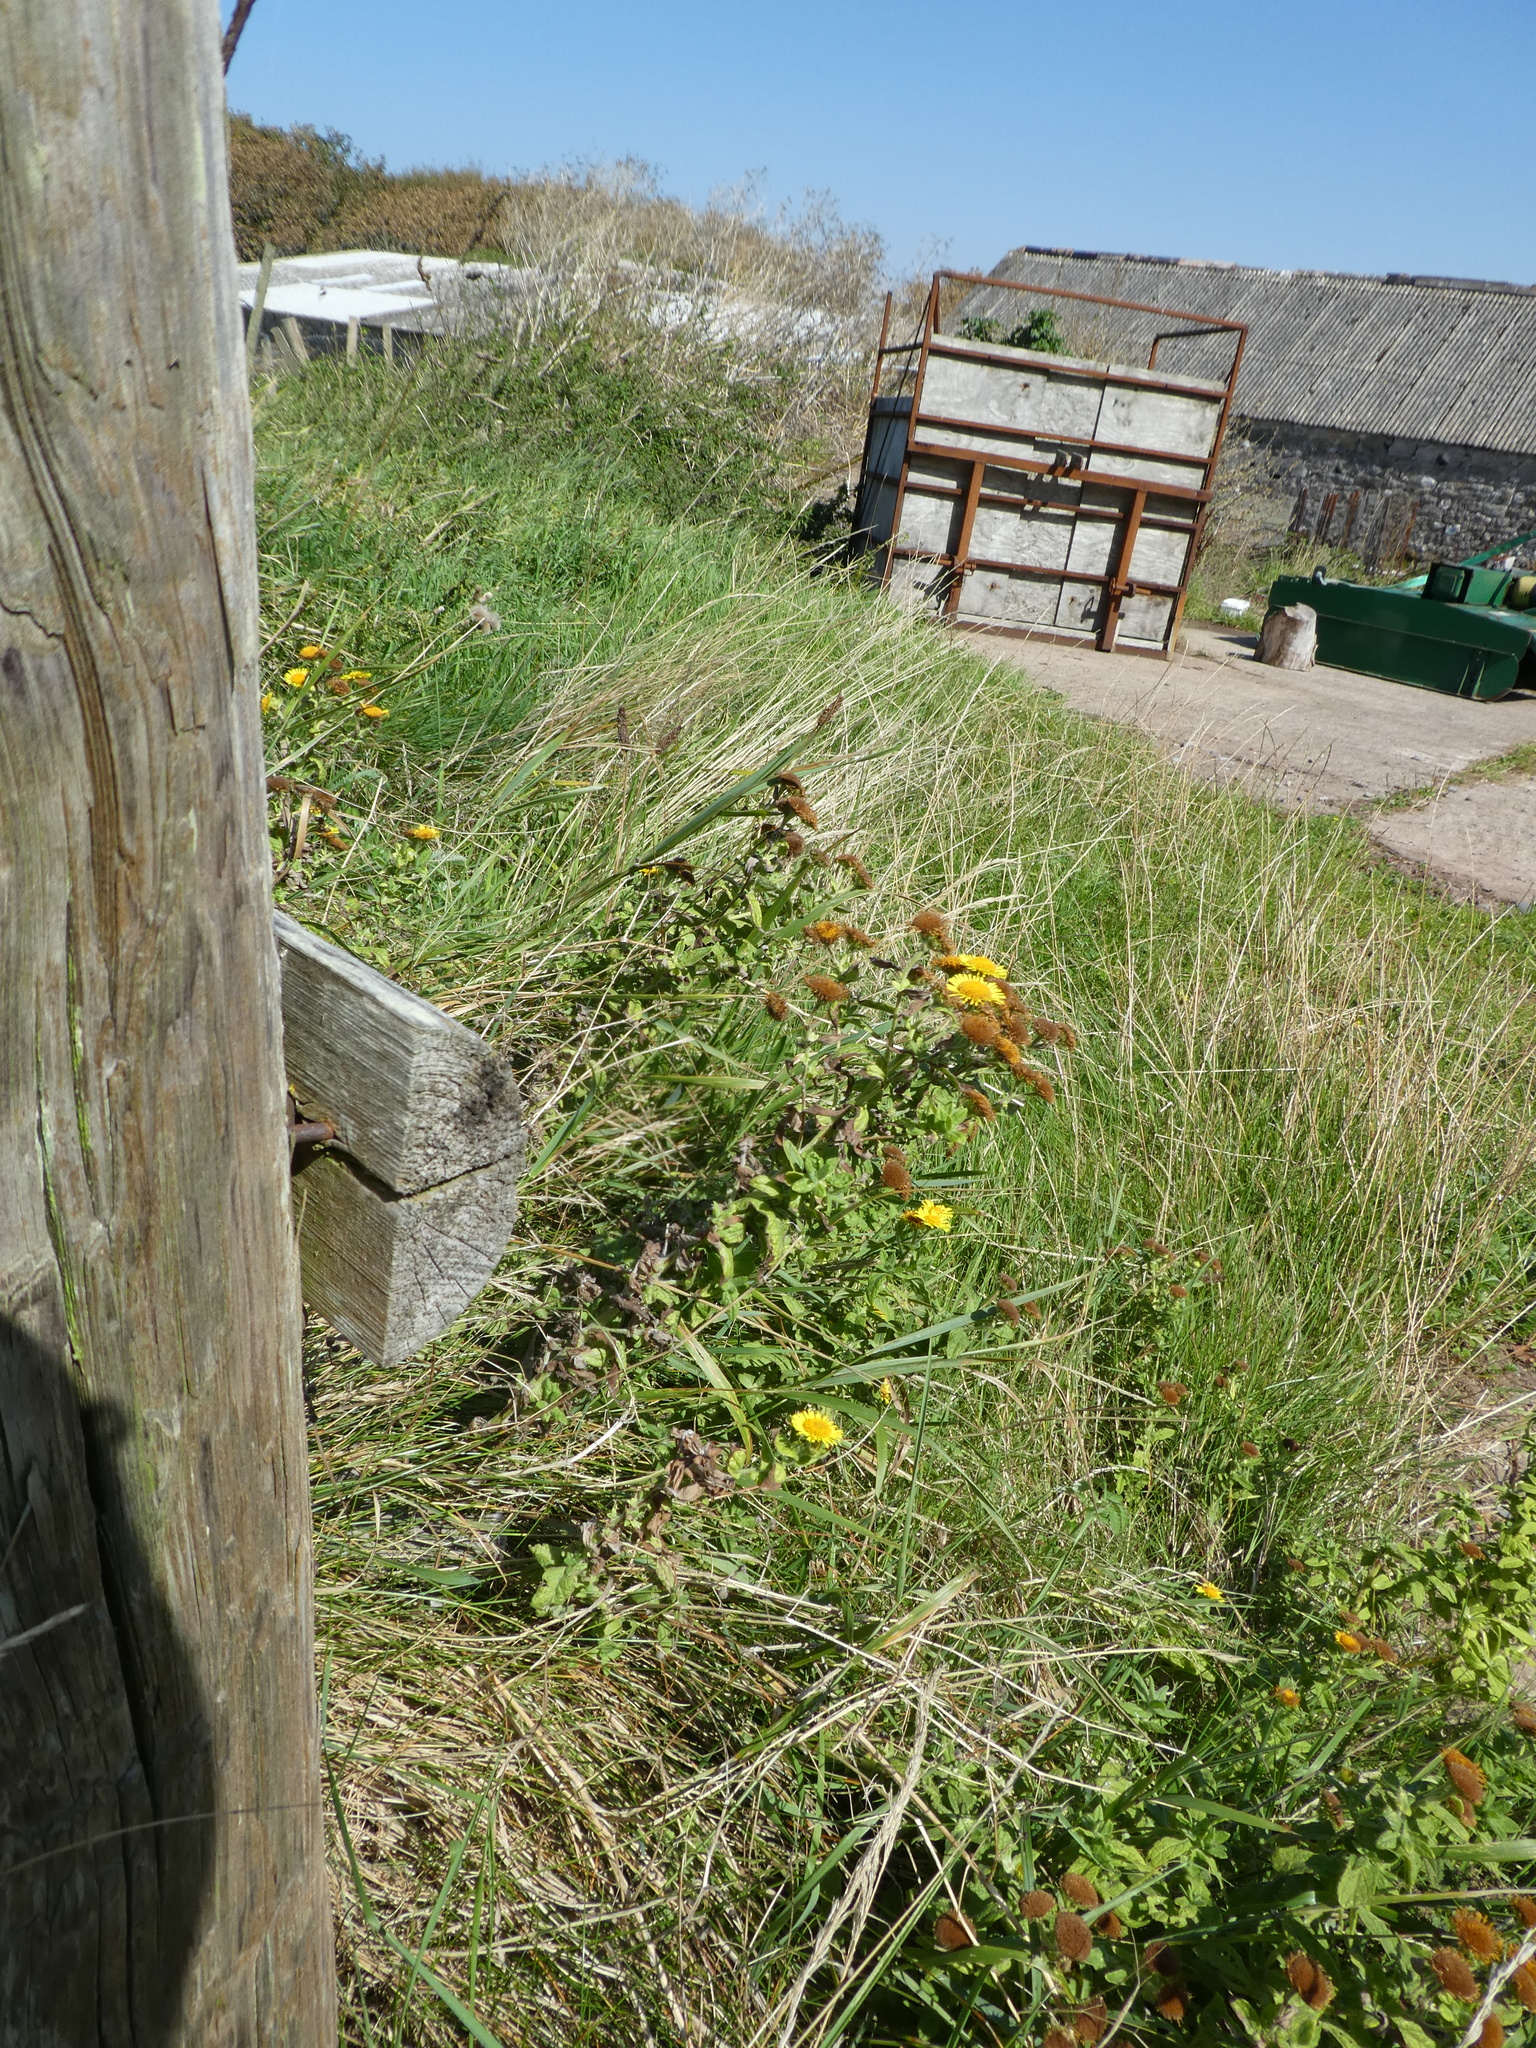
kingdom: Plantae
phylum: Tracheophyta
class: Magnoliopsida
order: Asterales
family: Asteraceae
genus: Pulicaria
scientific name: Pulicaria dysenterica
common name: Common fleabane
